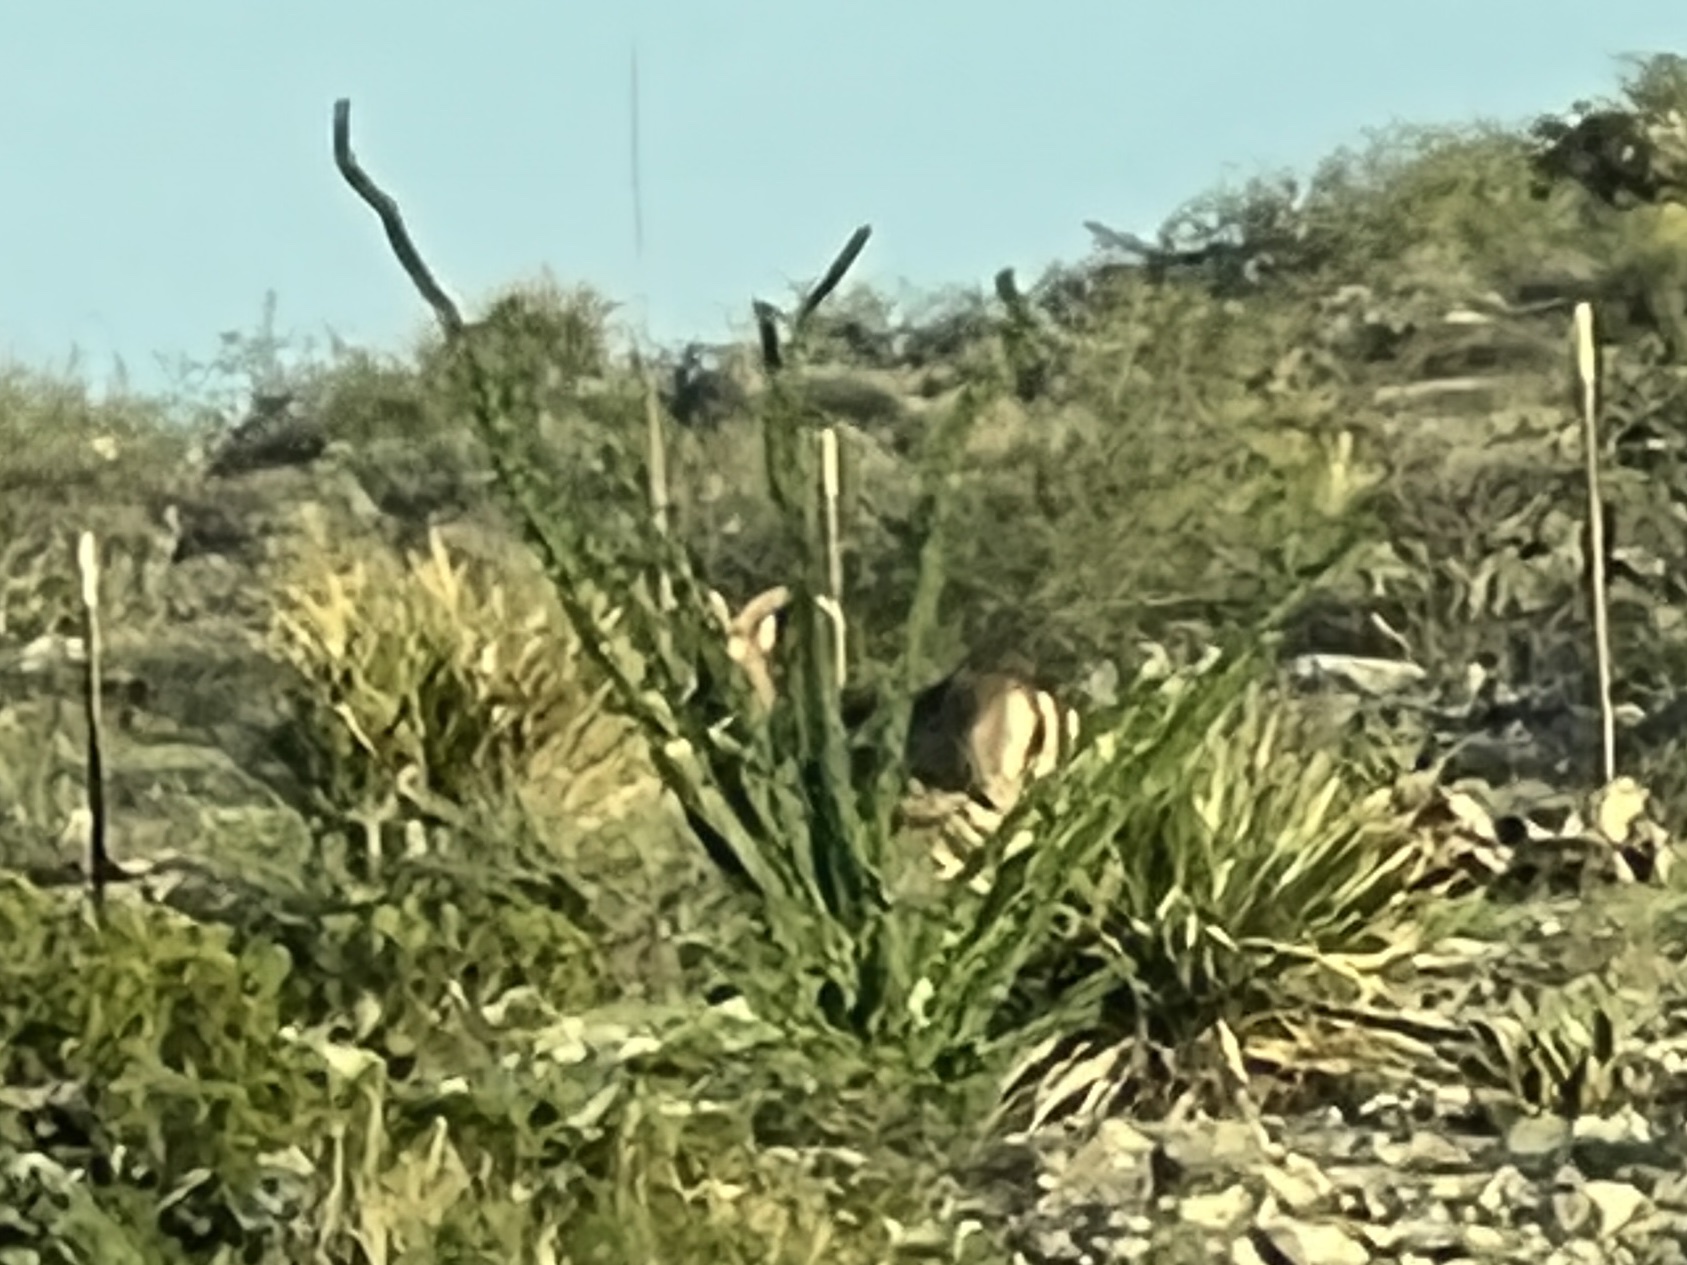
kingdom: Plantae
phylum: Tracheophyta
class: Magnoliopsida
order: Ericales
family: Fouquieriaceae
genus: Fouquieria
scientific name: Fouquieria splendens
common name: Vine-cactus
